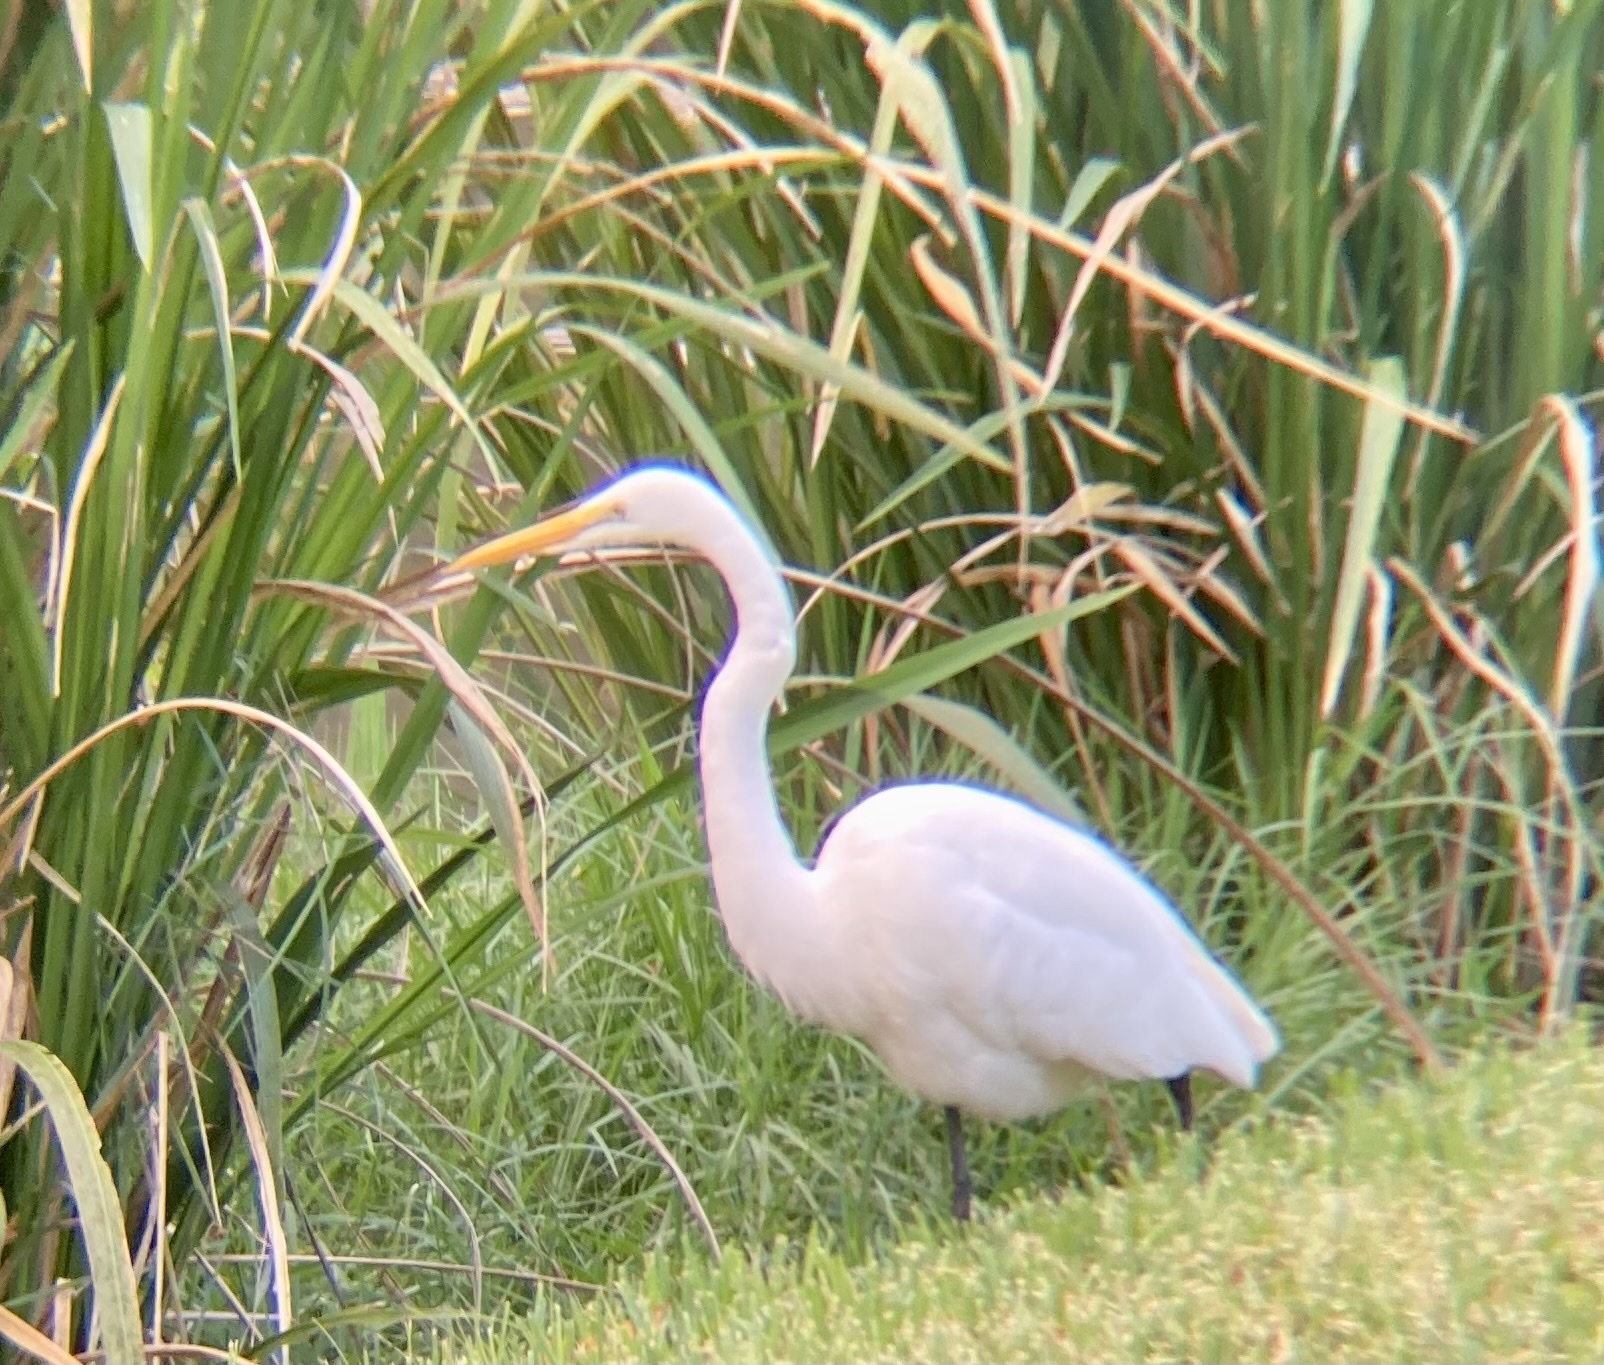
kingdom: Animalia
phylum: Chordata
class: Aves
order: Pelecaniformes
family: Ardeidae
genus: Ardea
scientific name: Ardea alba
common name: Great egret
